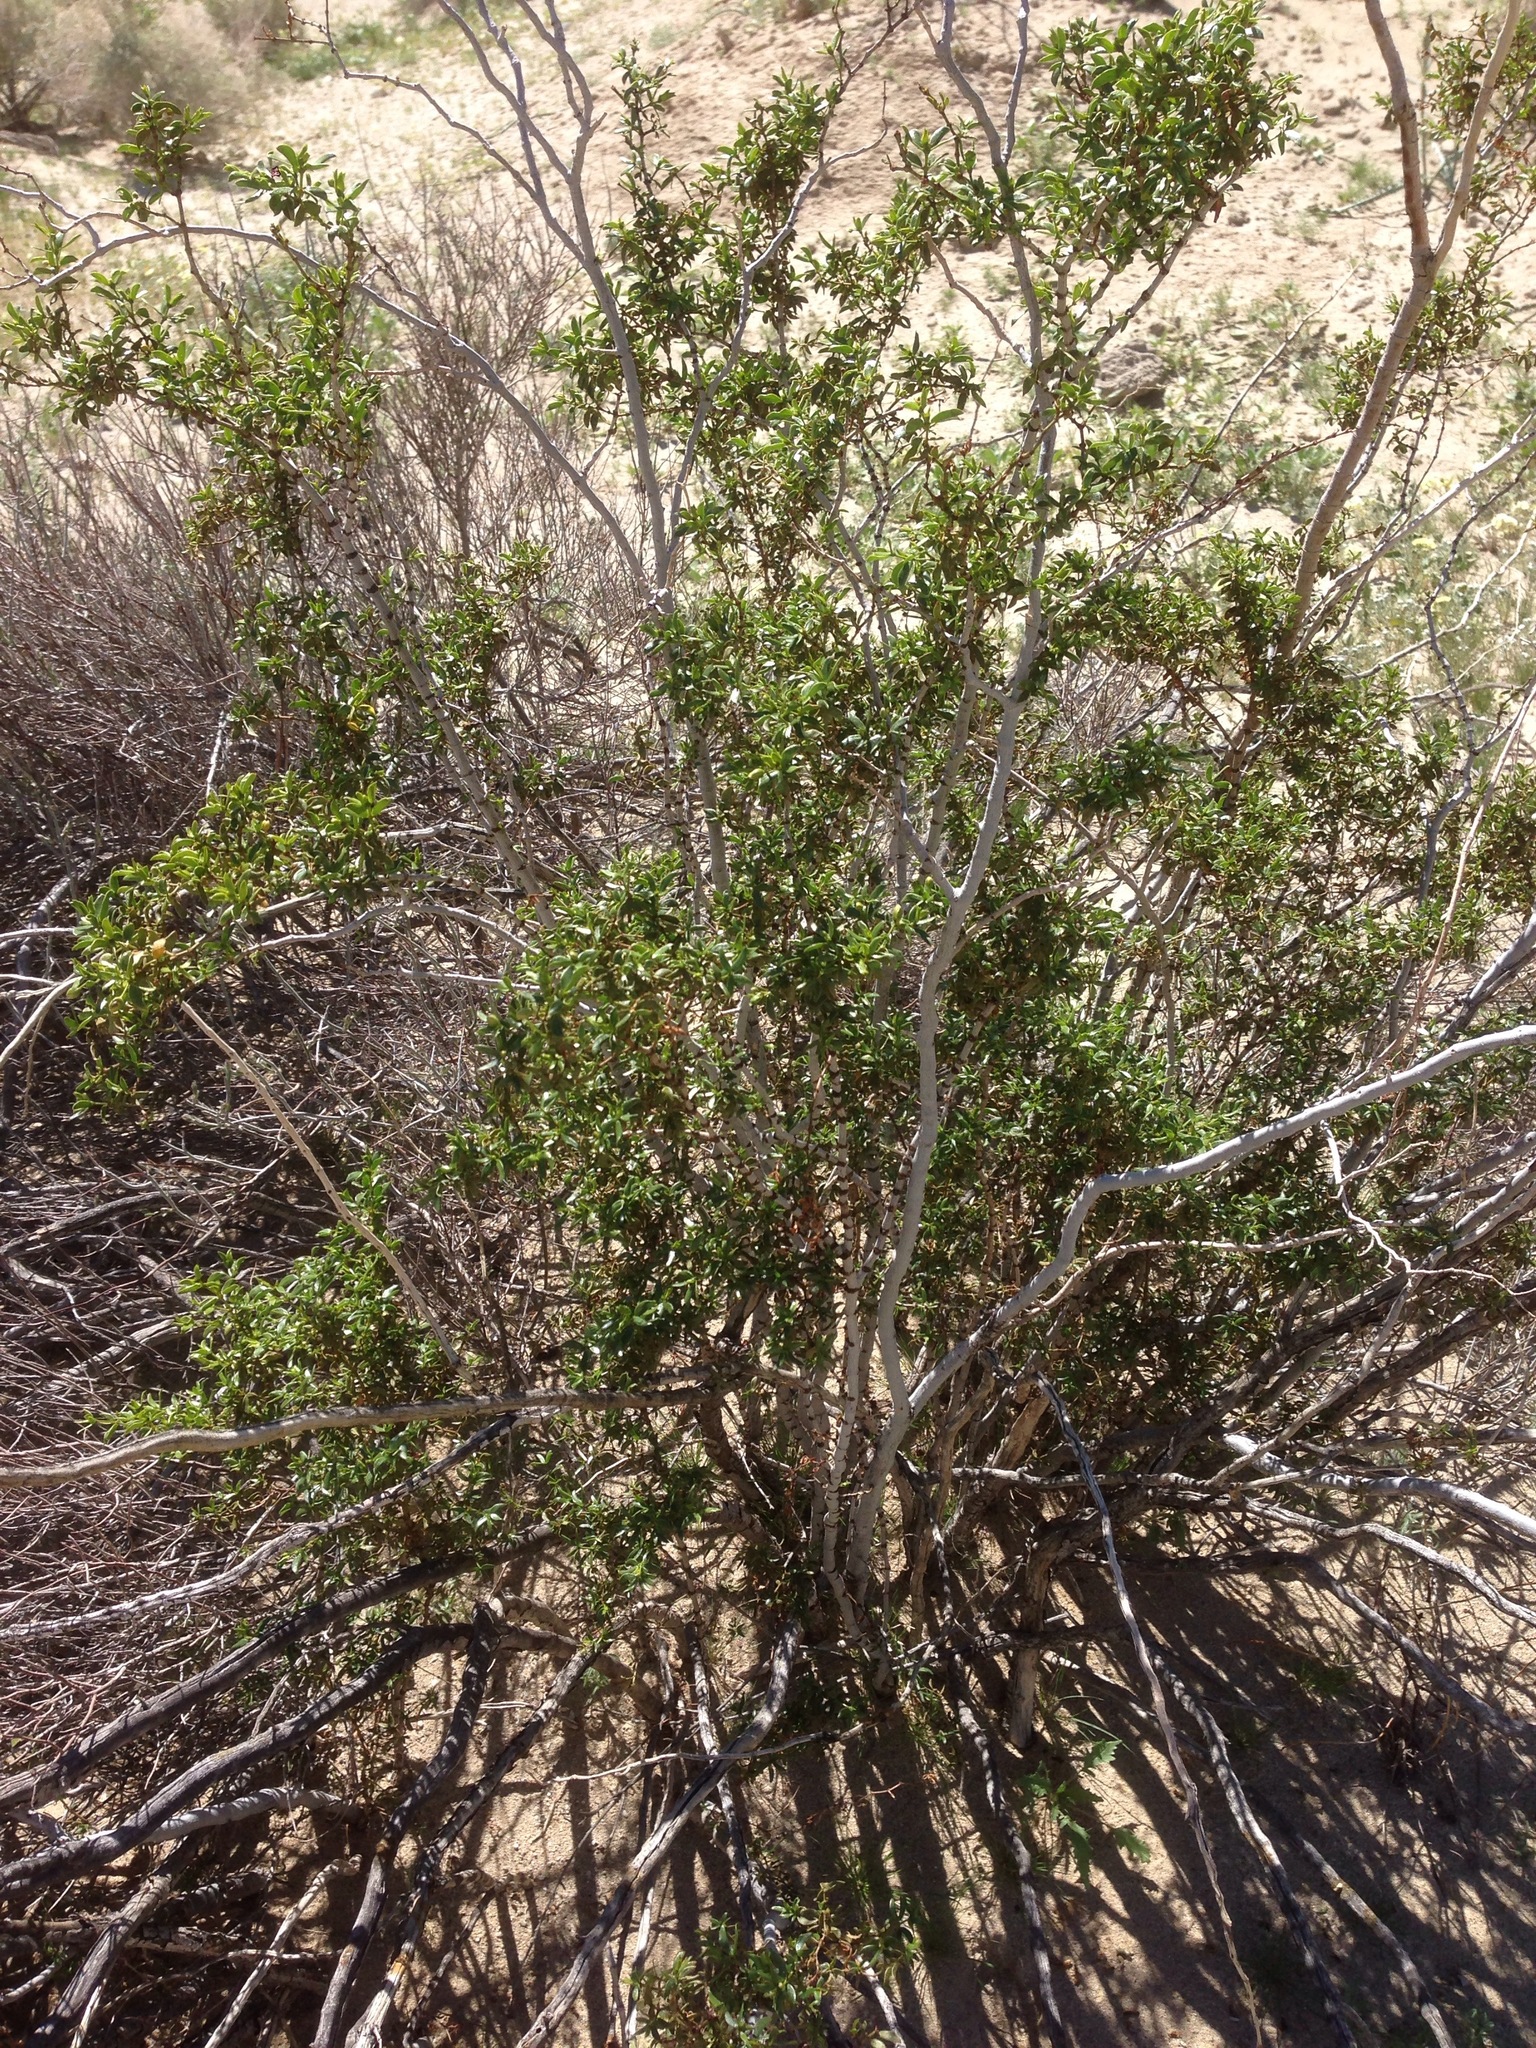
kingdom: Plantae
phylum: Tracheophyta
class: Magnoliopsida
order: Zygophyllales
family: Zygophyllaceae
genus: Larrea
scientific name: Larrea tridentata
